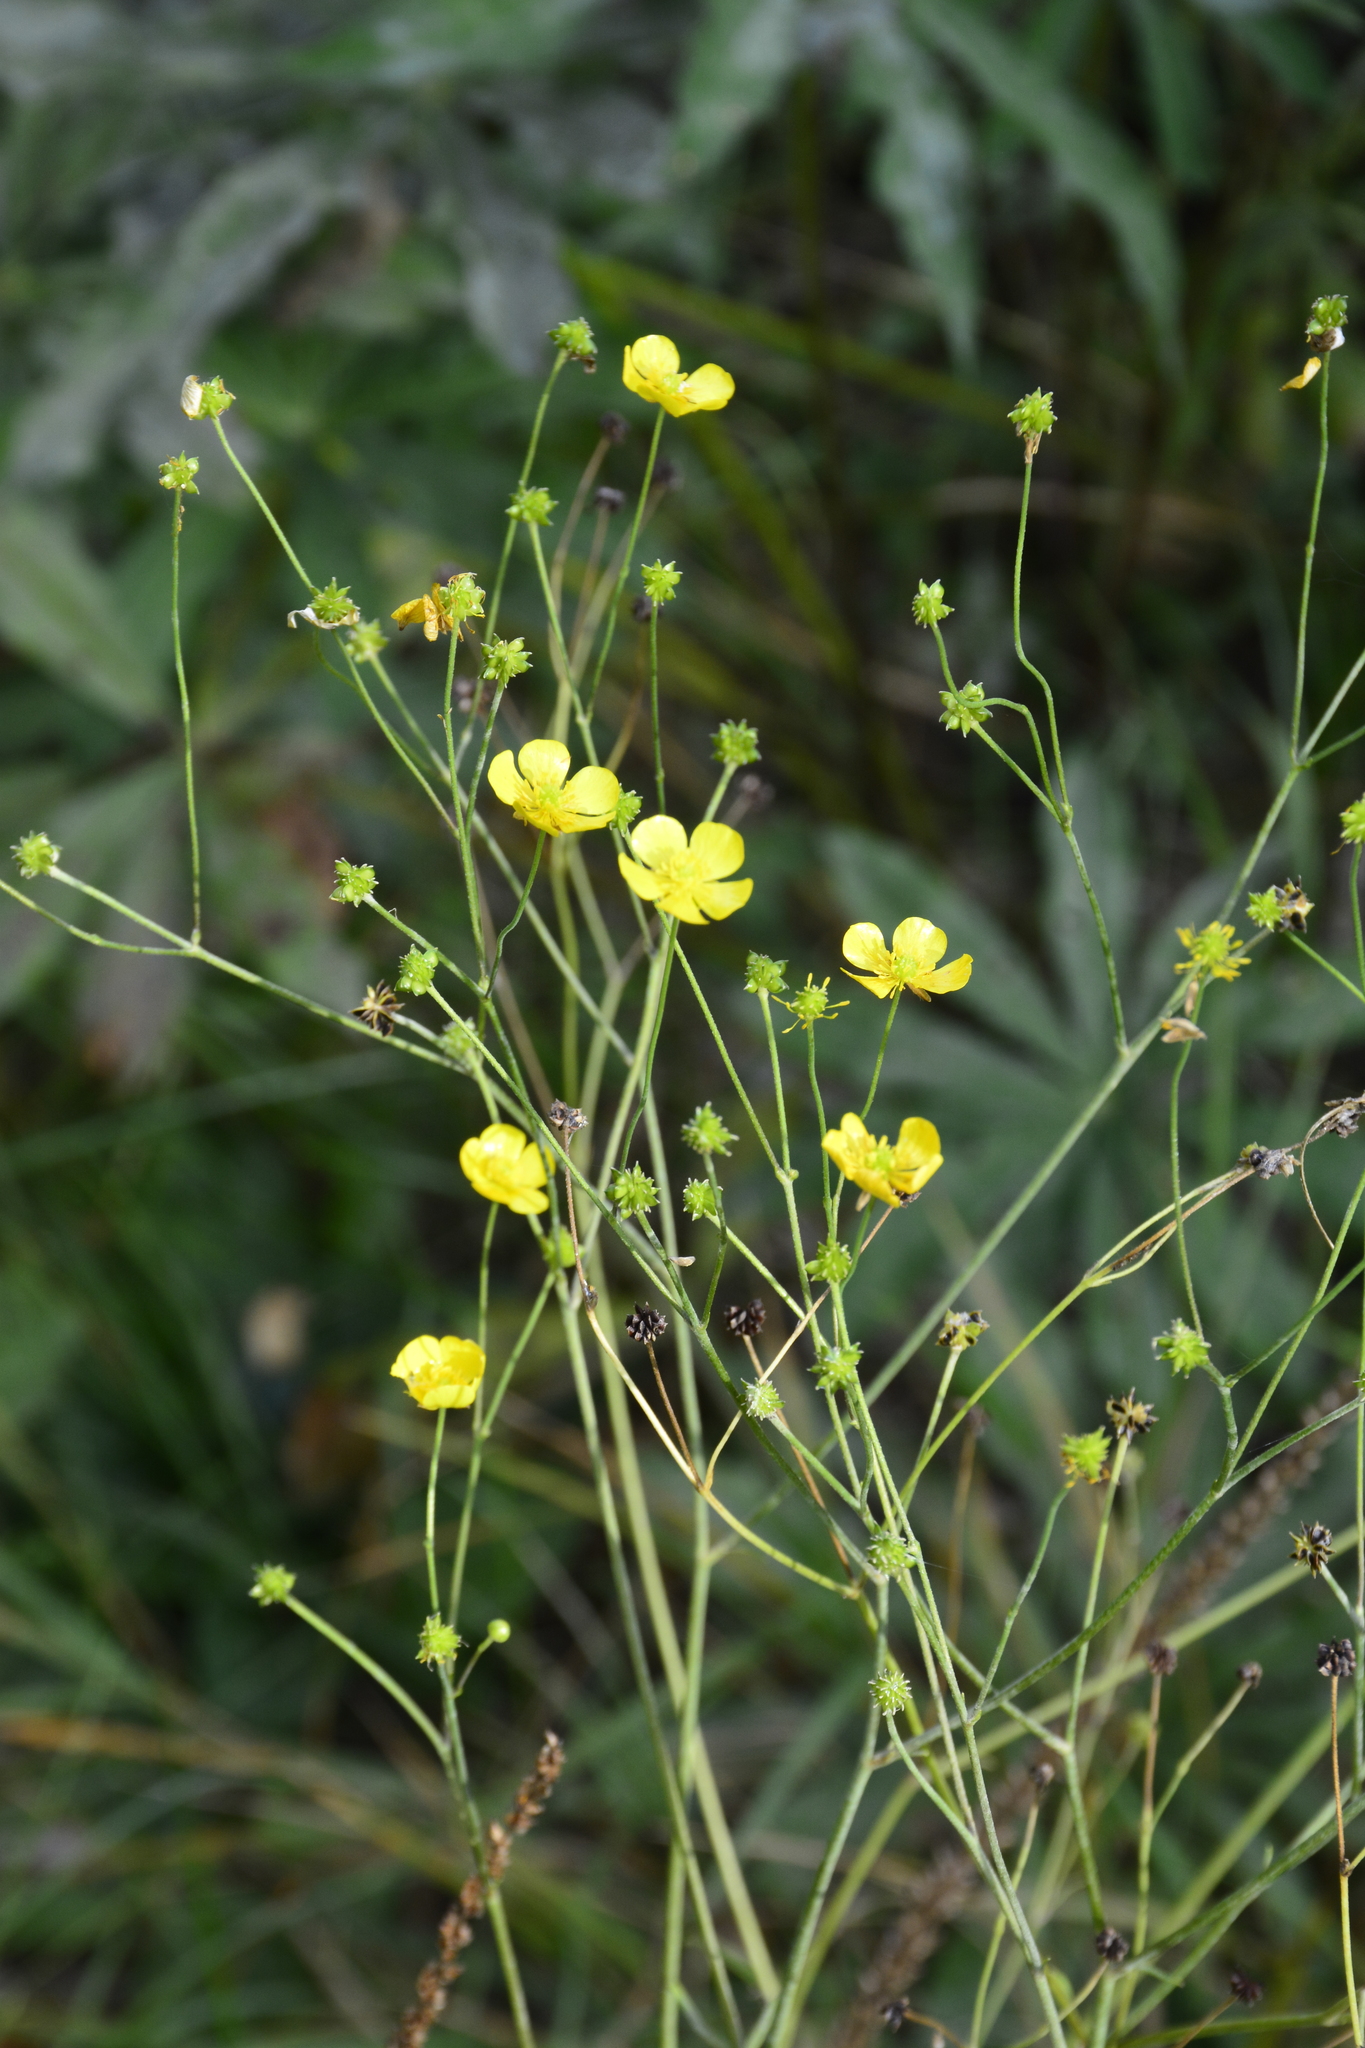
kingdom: Plantae
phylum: Tracheophyta
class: Magnoliopsida
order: Ranunculales
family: Ranunculaceae
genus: Ranunculus
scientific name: Ranunculus acris
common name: Meadow buttercup
